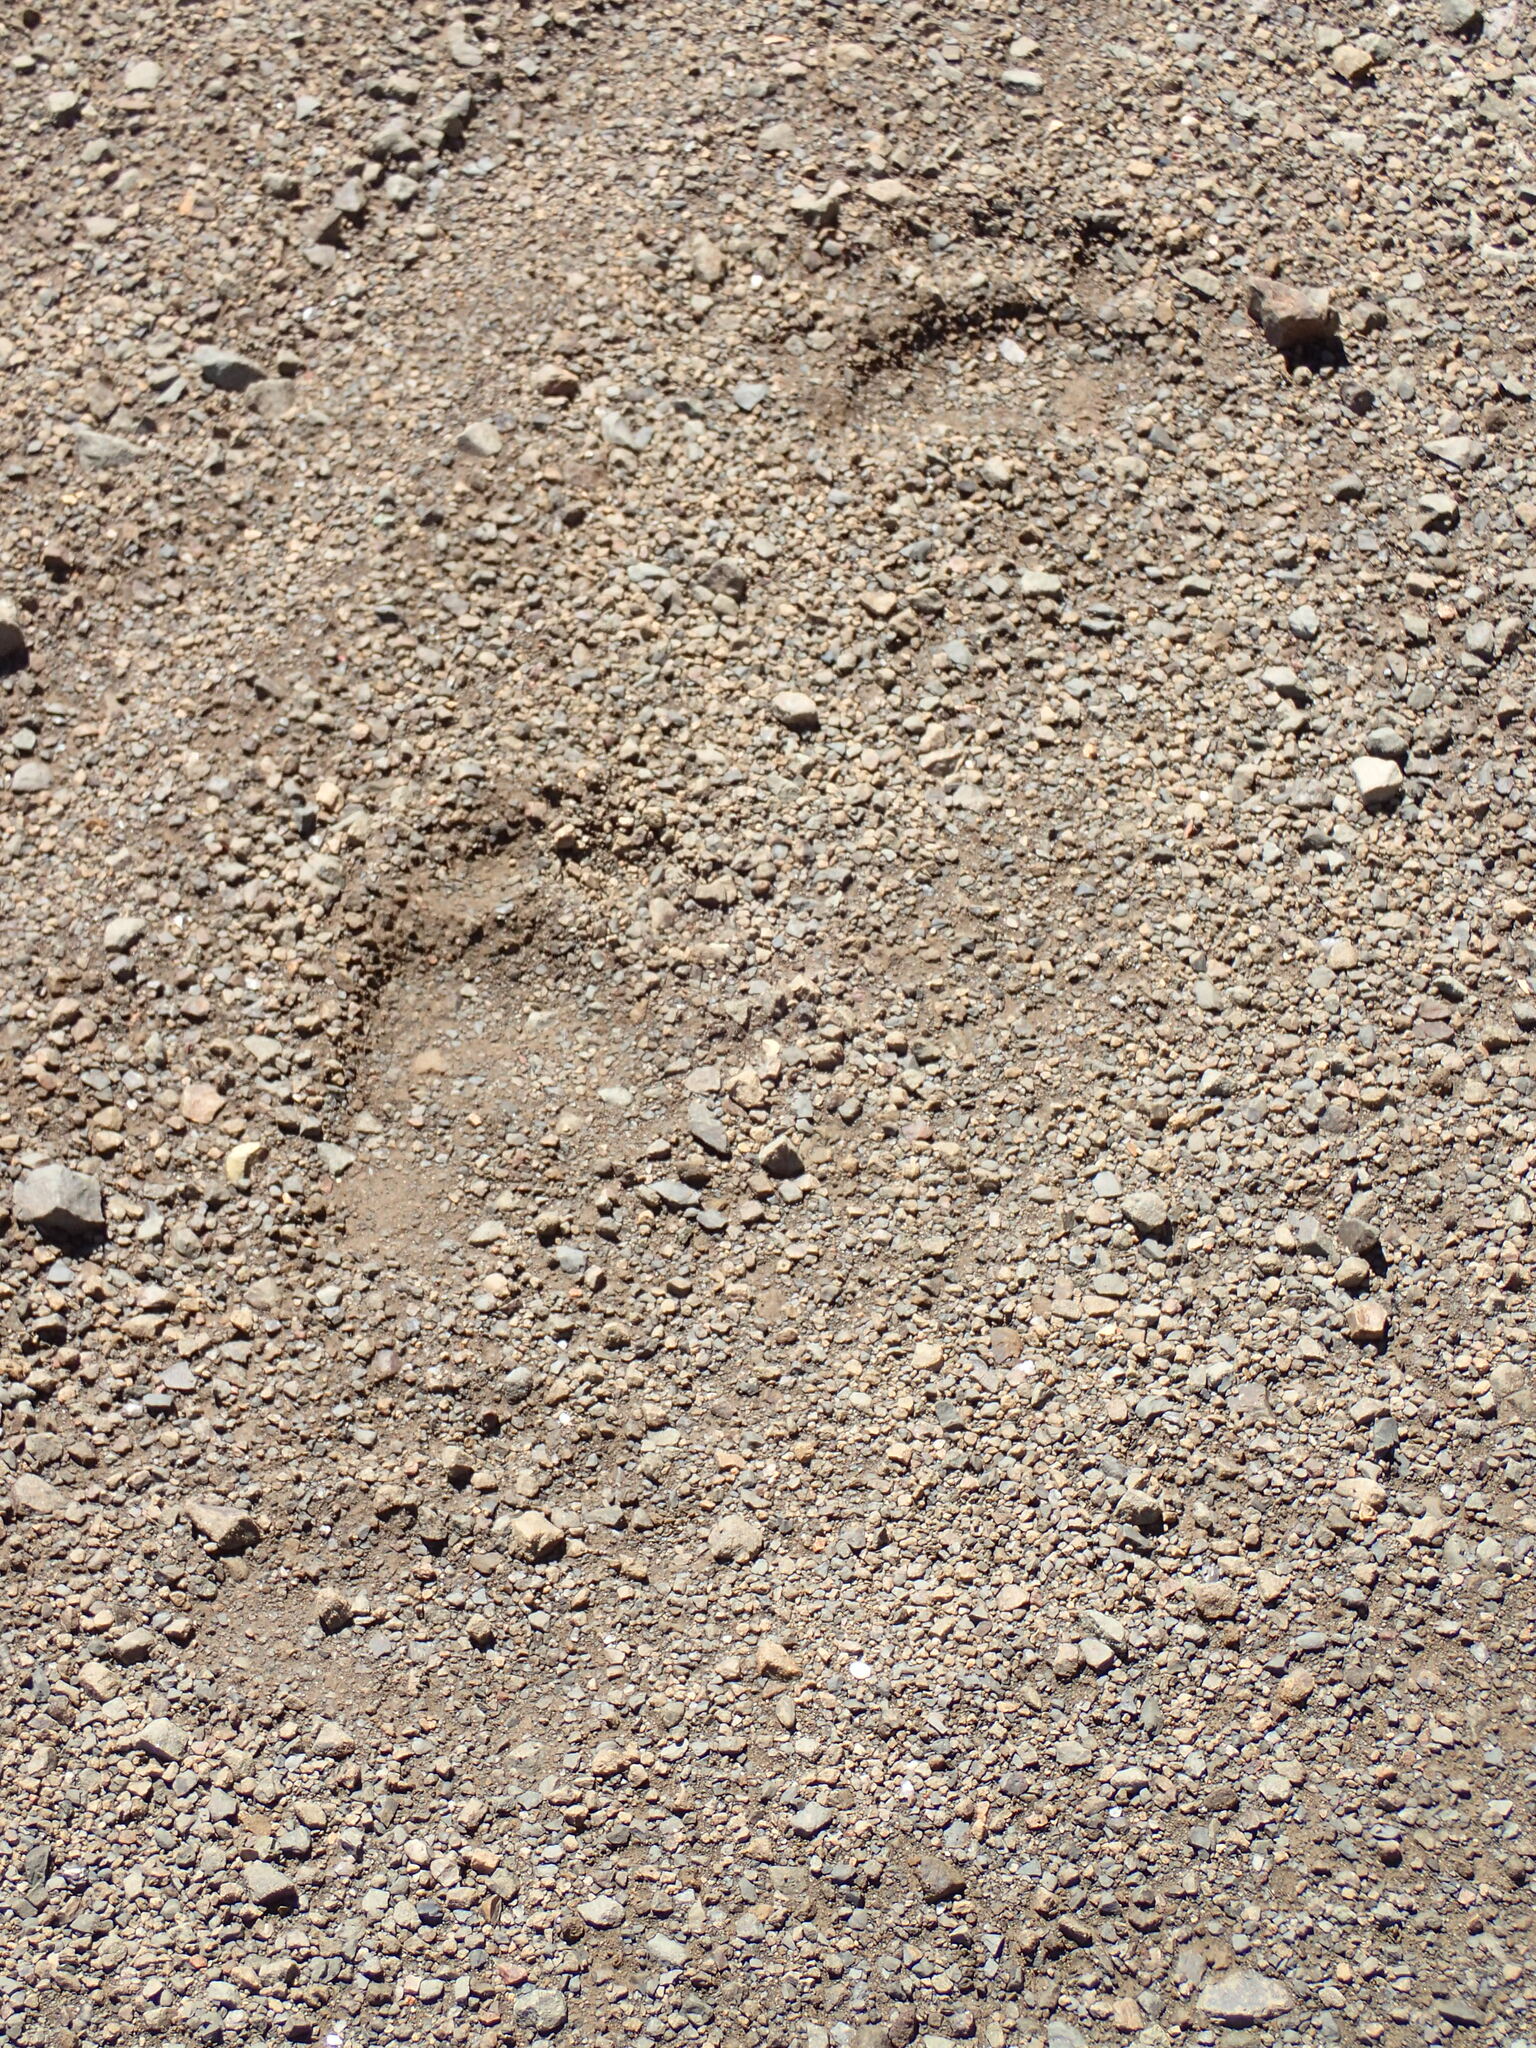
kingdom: Animalia
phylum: Chordata
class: Mammalia
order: Carnivora
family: Ursidae
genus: Ursus
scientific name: Ursus americanus
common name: American black bear
